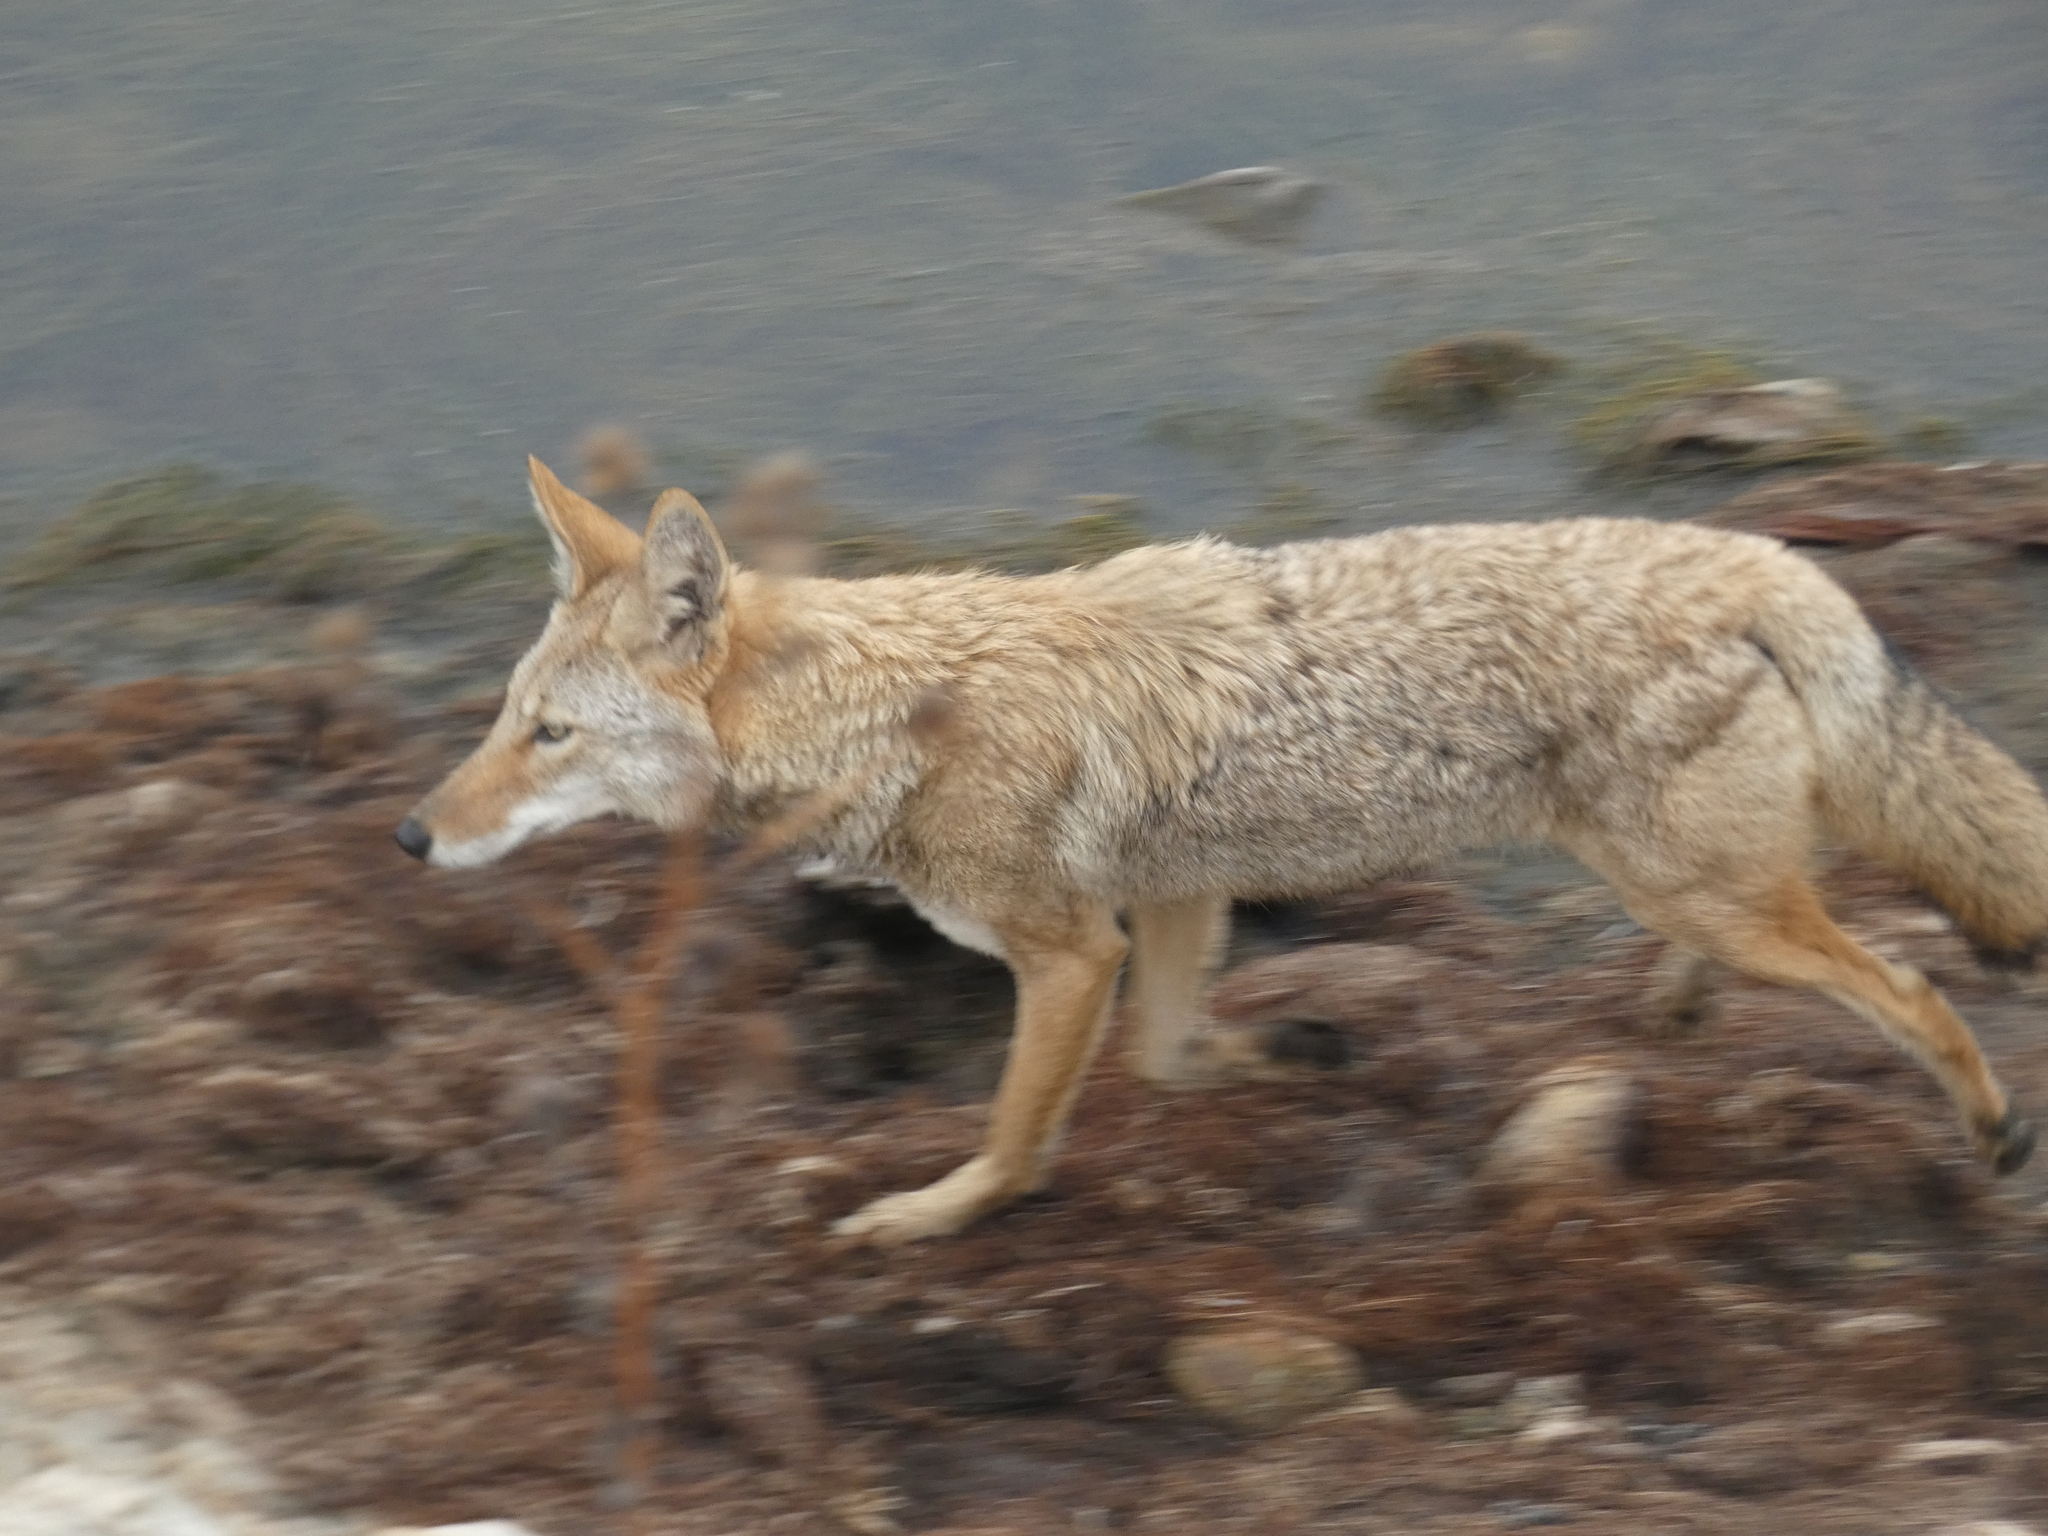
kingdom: Animalia
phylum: Chordata
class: Mammalia
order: Carnivora
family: Canidae
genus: Canis
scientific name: Canis latrans
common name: Coyote
